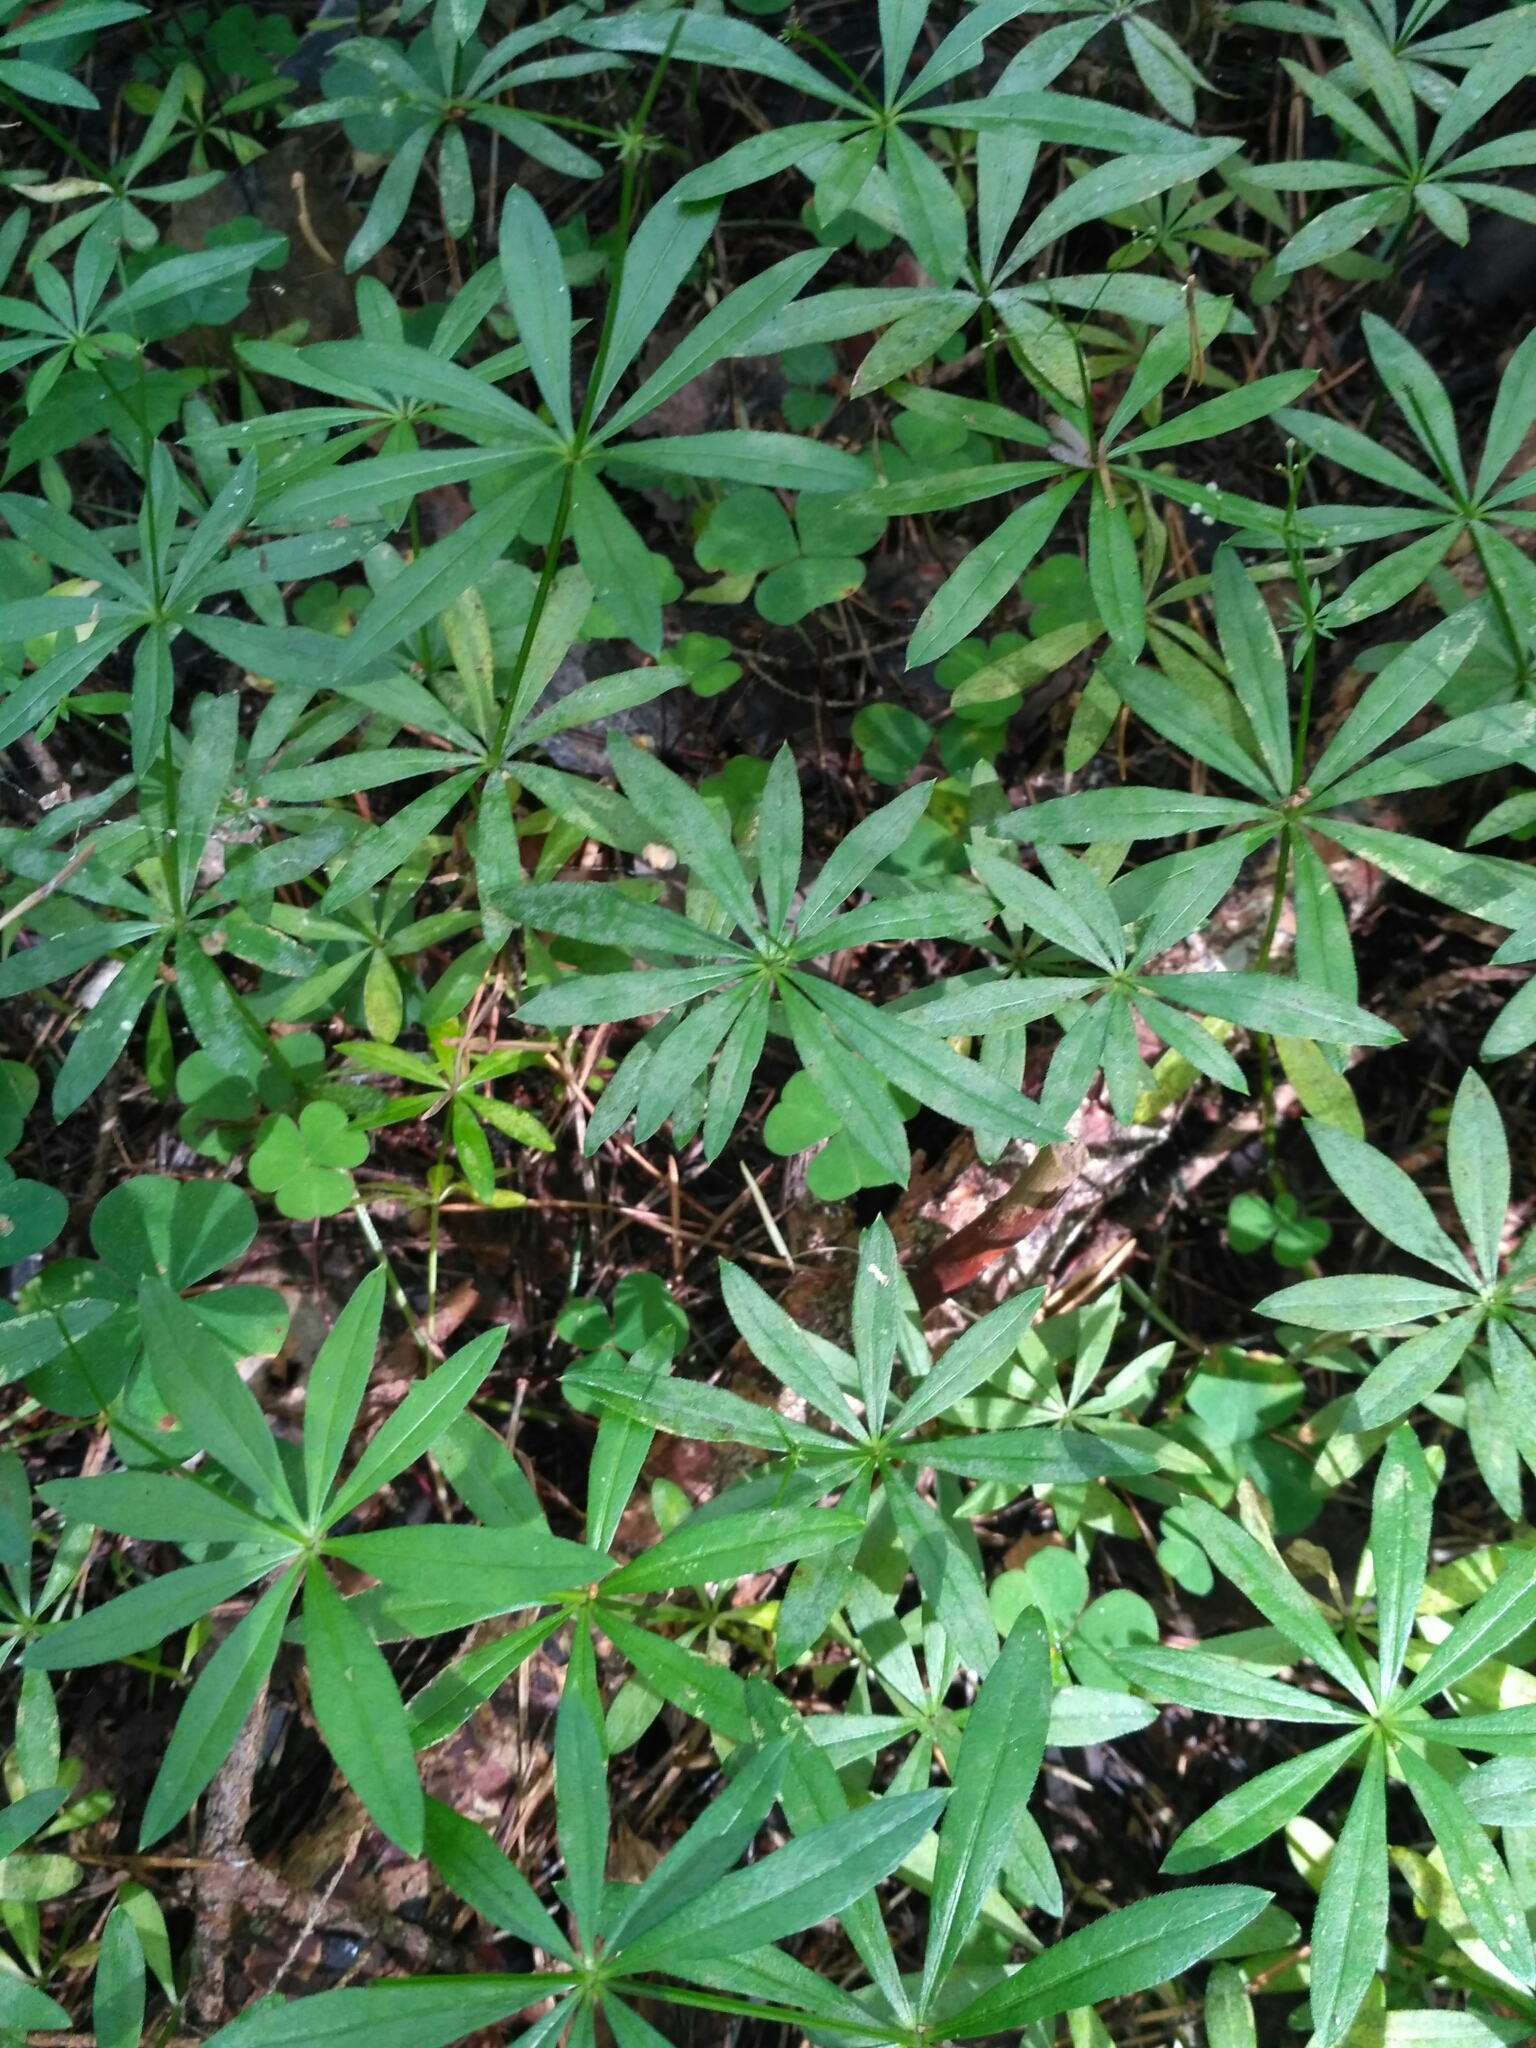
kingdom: Plantae
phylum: Tracheophyta
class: Magnoliopsida
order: Gentianales
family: Rubiaceae
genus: Galium
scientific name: Galium odoratum
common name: Sweet woodruff
